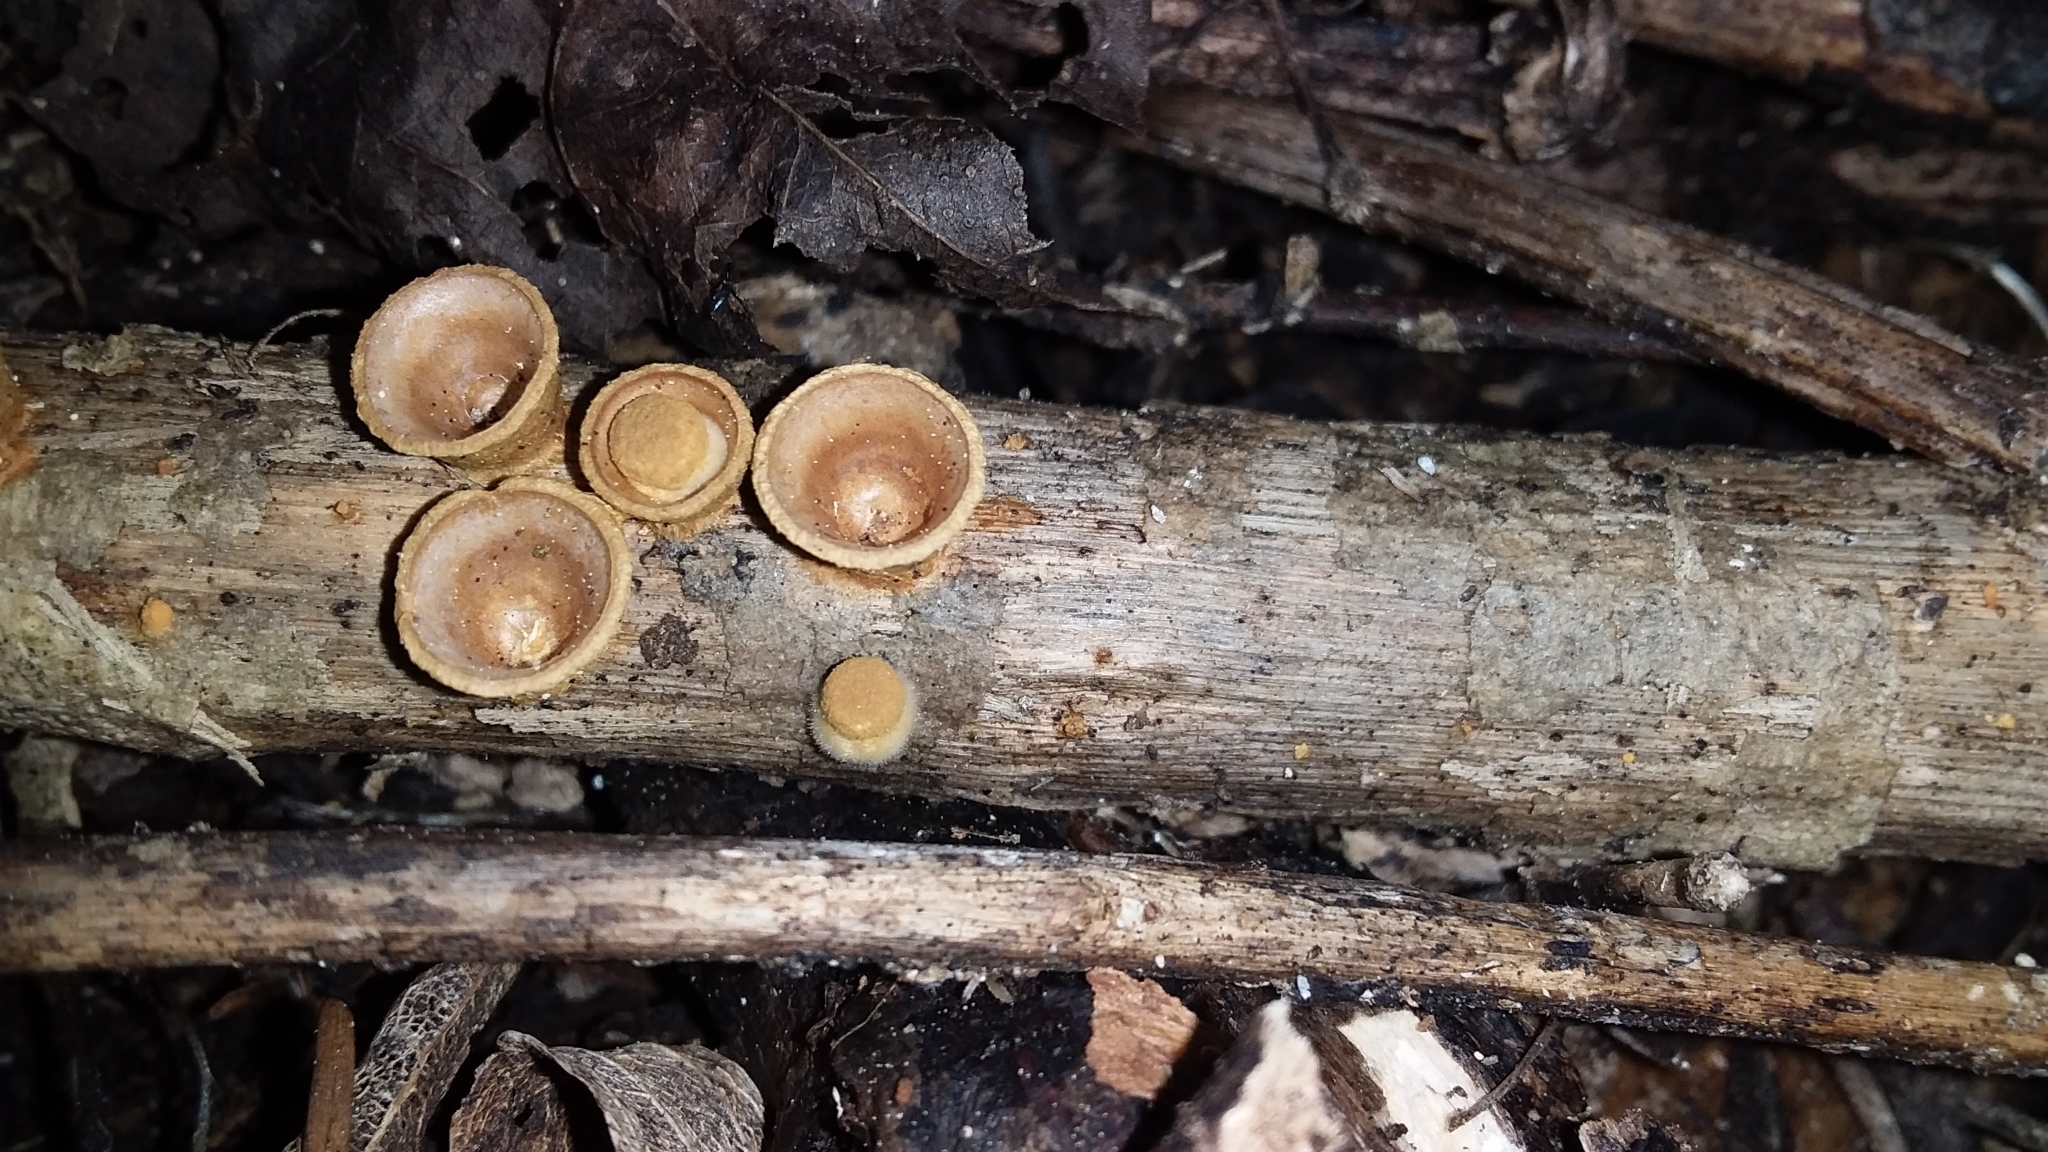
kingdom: Fungi
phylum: Basidiomycota
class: Agaricomycetes
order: Agaricales
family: Nidulariaceae
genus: Crucibulum
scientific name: Crucibulum simile
